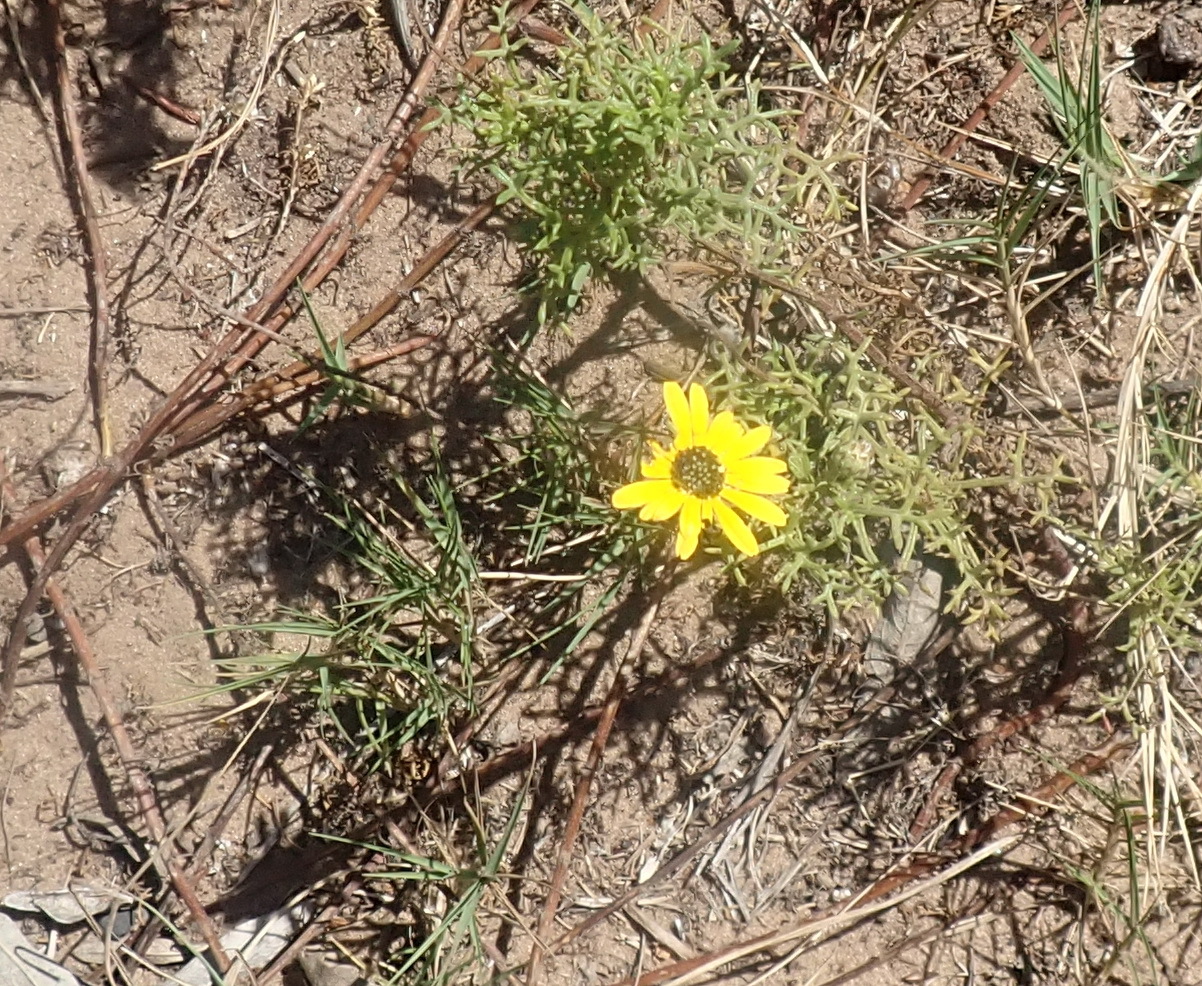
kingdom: Plantae
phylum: Tracheophyta
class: Magnoliopsida
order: Asterales
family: Asteraceae
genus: Ursinia
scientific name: Ursinia chrysanthemoides
